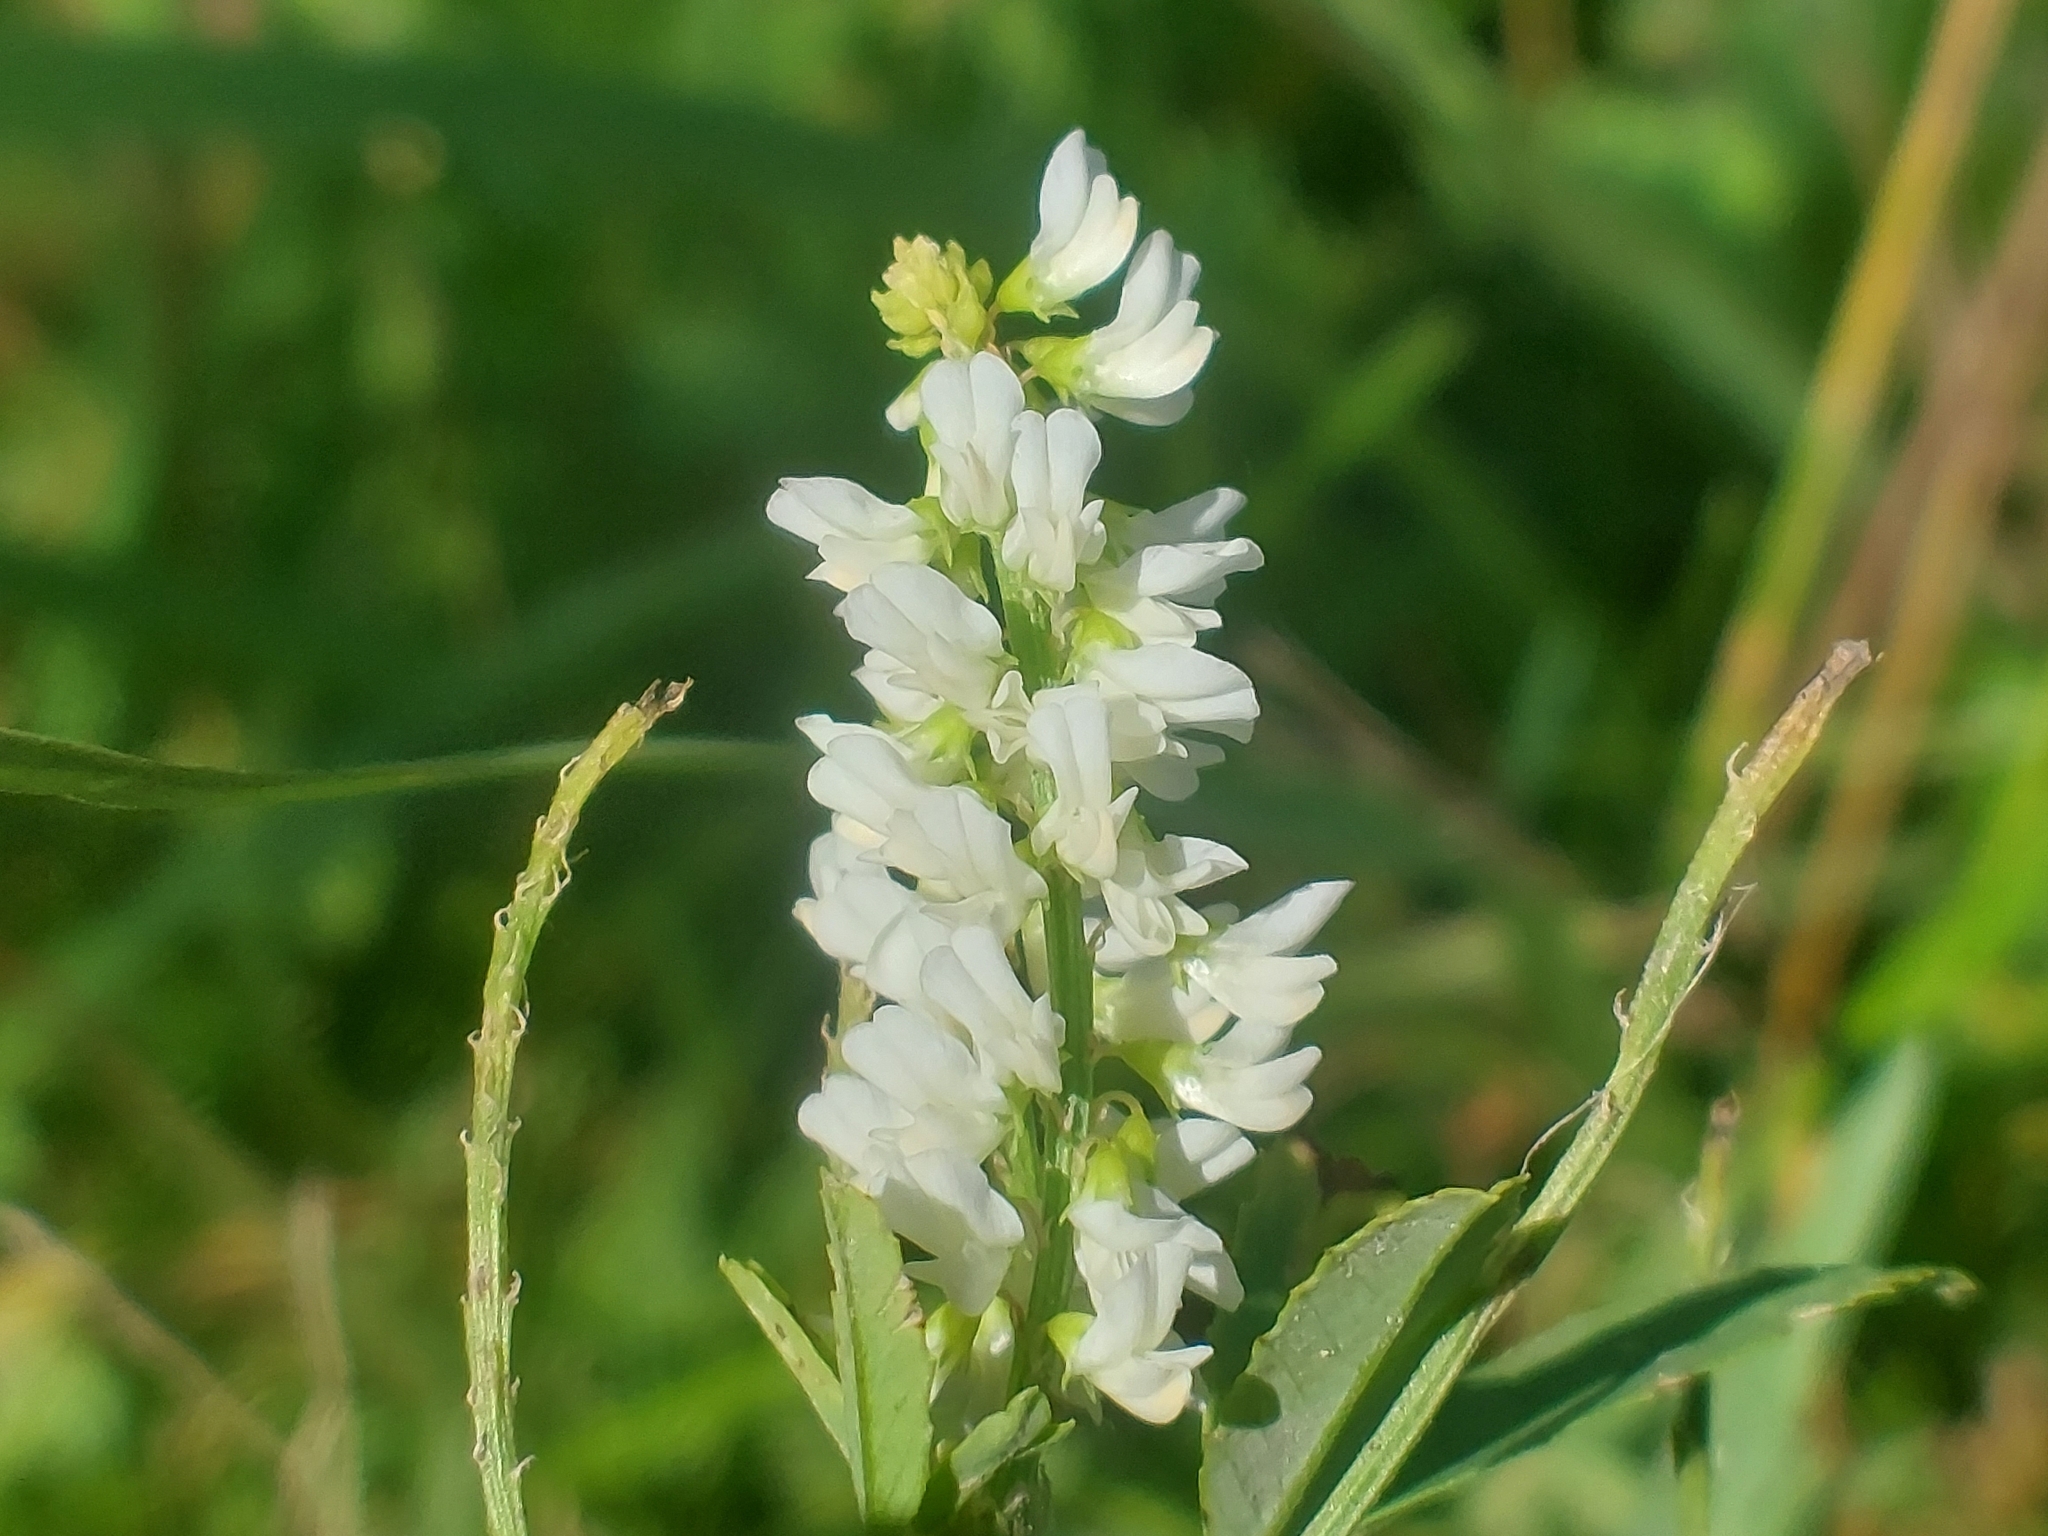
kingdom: Plantae
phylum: Tracheophyta
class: Magnoliopsida
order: Fabales
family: Fabaceae
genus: Melilotus
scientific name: Melilotus albus
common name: White melilot
